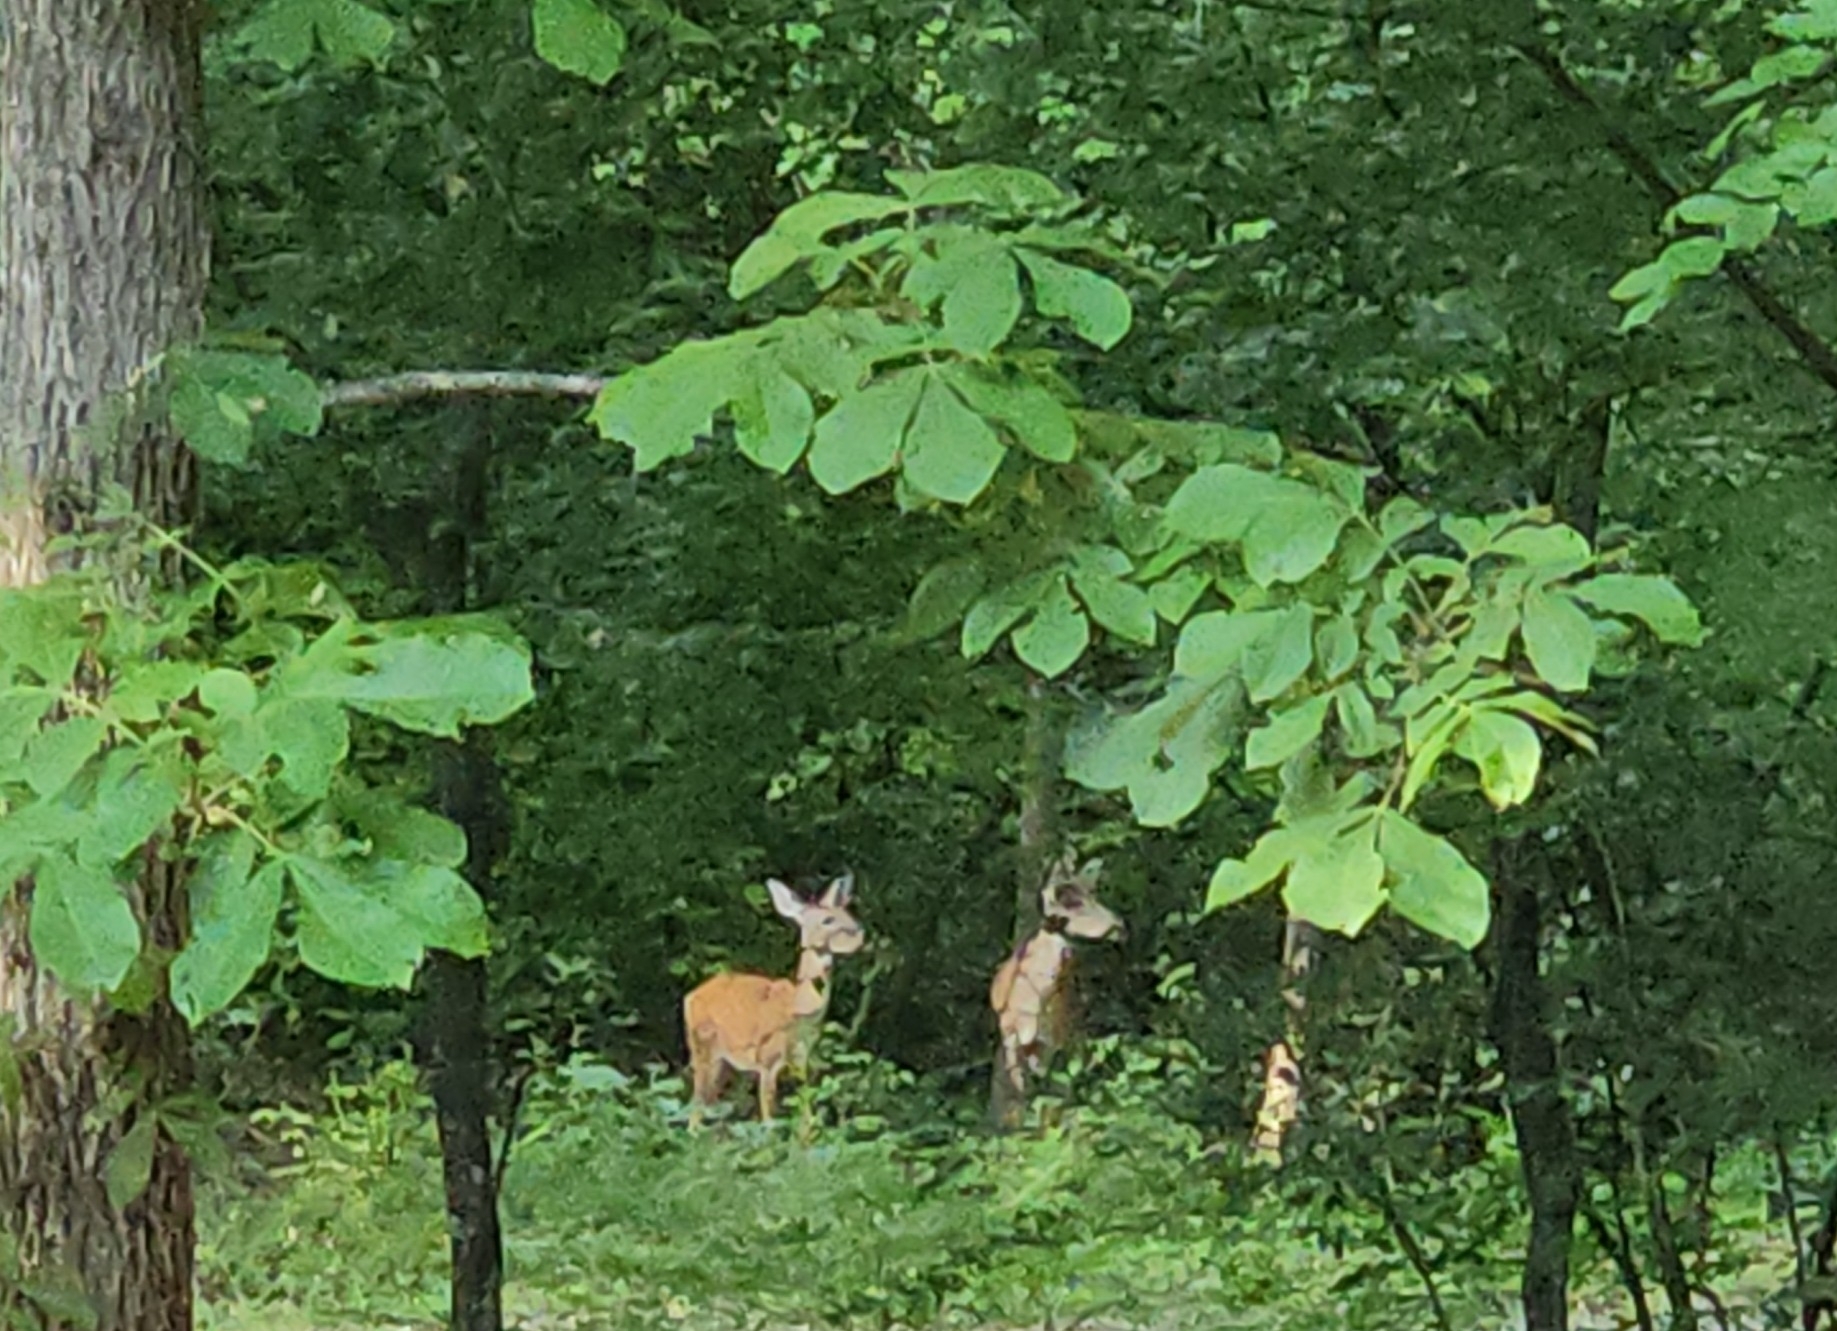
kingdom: Animalia
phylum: Chordata
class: Mammalia
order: Artiodactyla
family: Cervidae
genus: Odocoileus
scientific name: Odocoileus virginianus
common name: White-tailed deer
